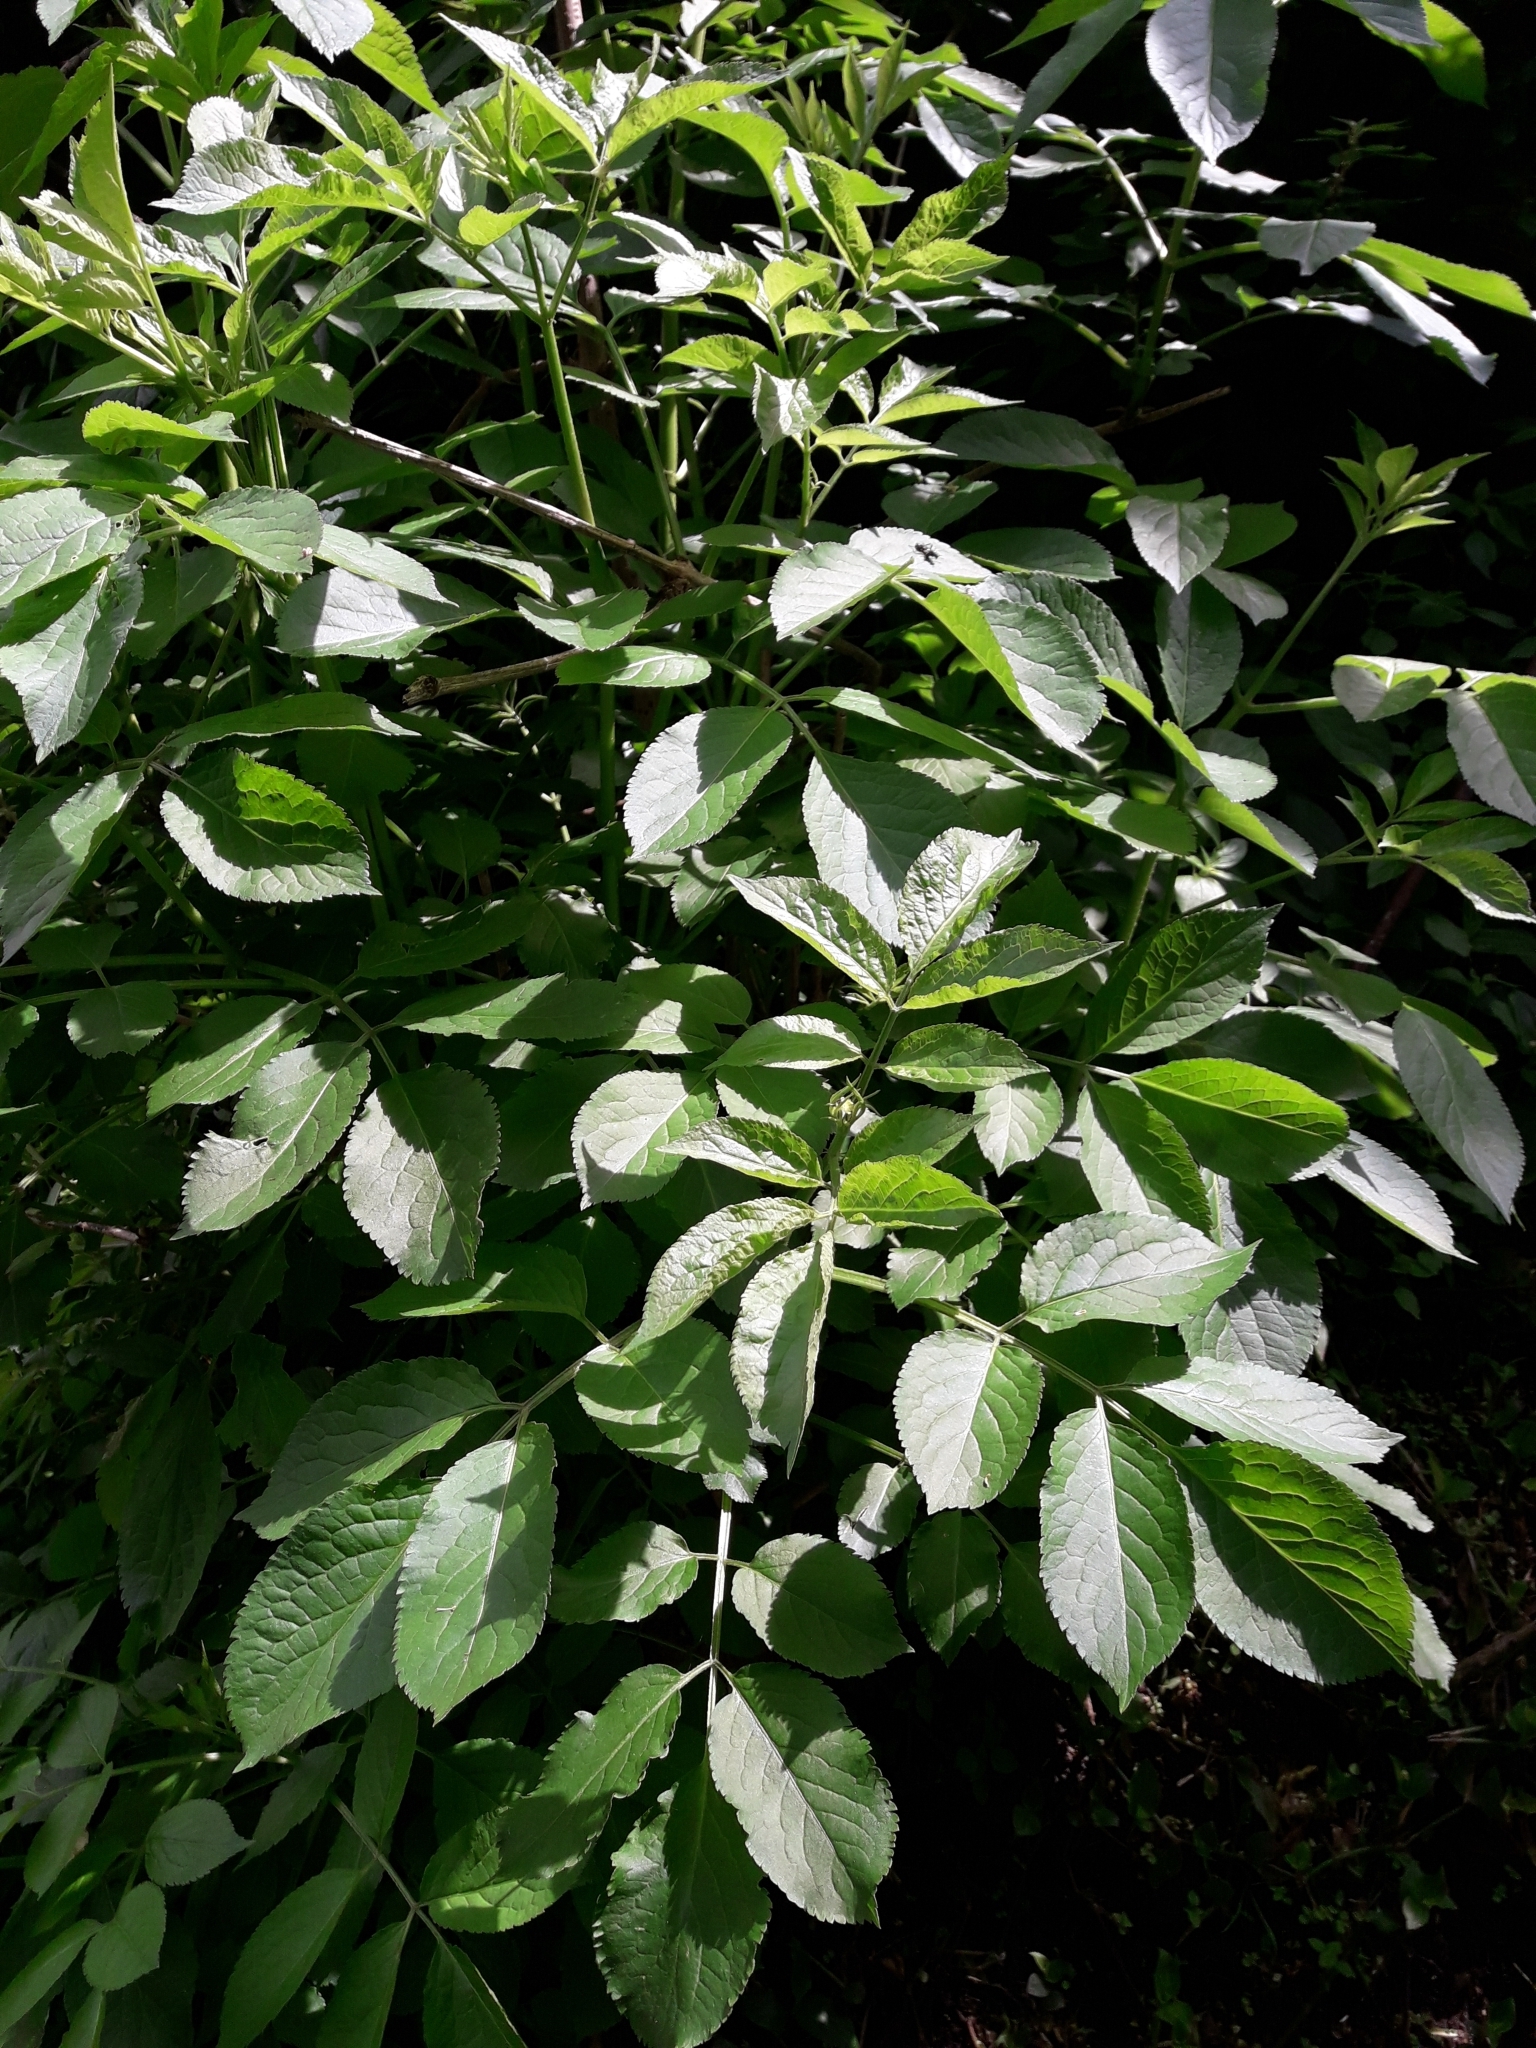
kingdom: Plantae
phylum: Tracheophyta
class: Magnoliopsida
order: Dipsacales
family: Viburnaceae
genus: Sambucus
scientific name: Sambucus nigra
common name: Elder
